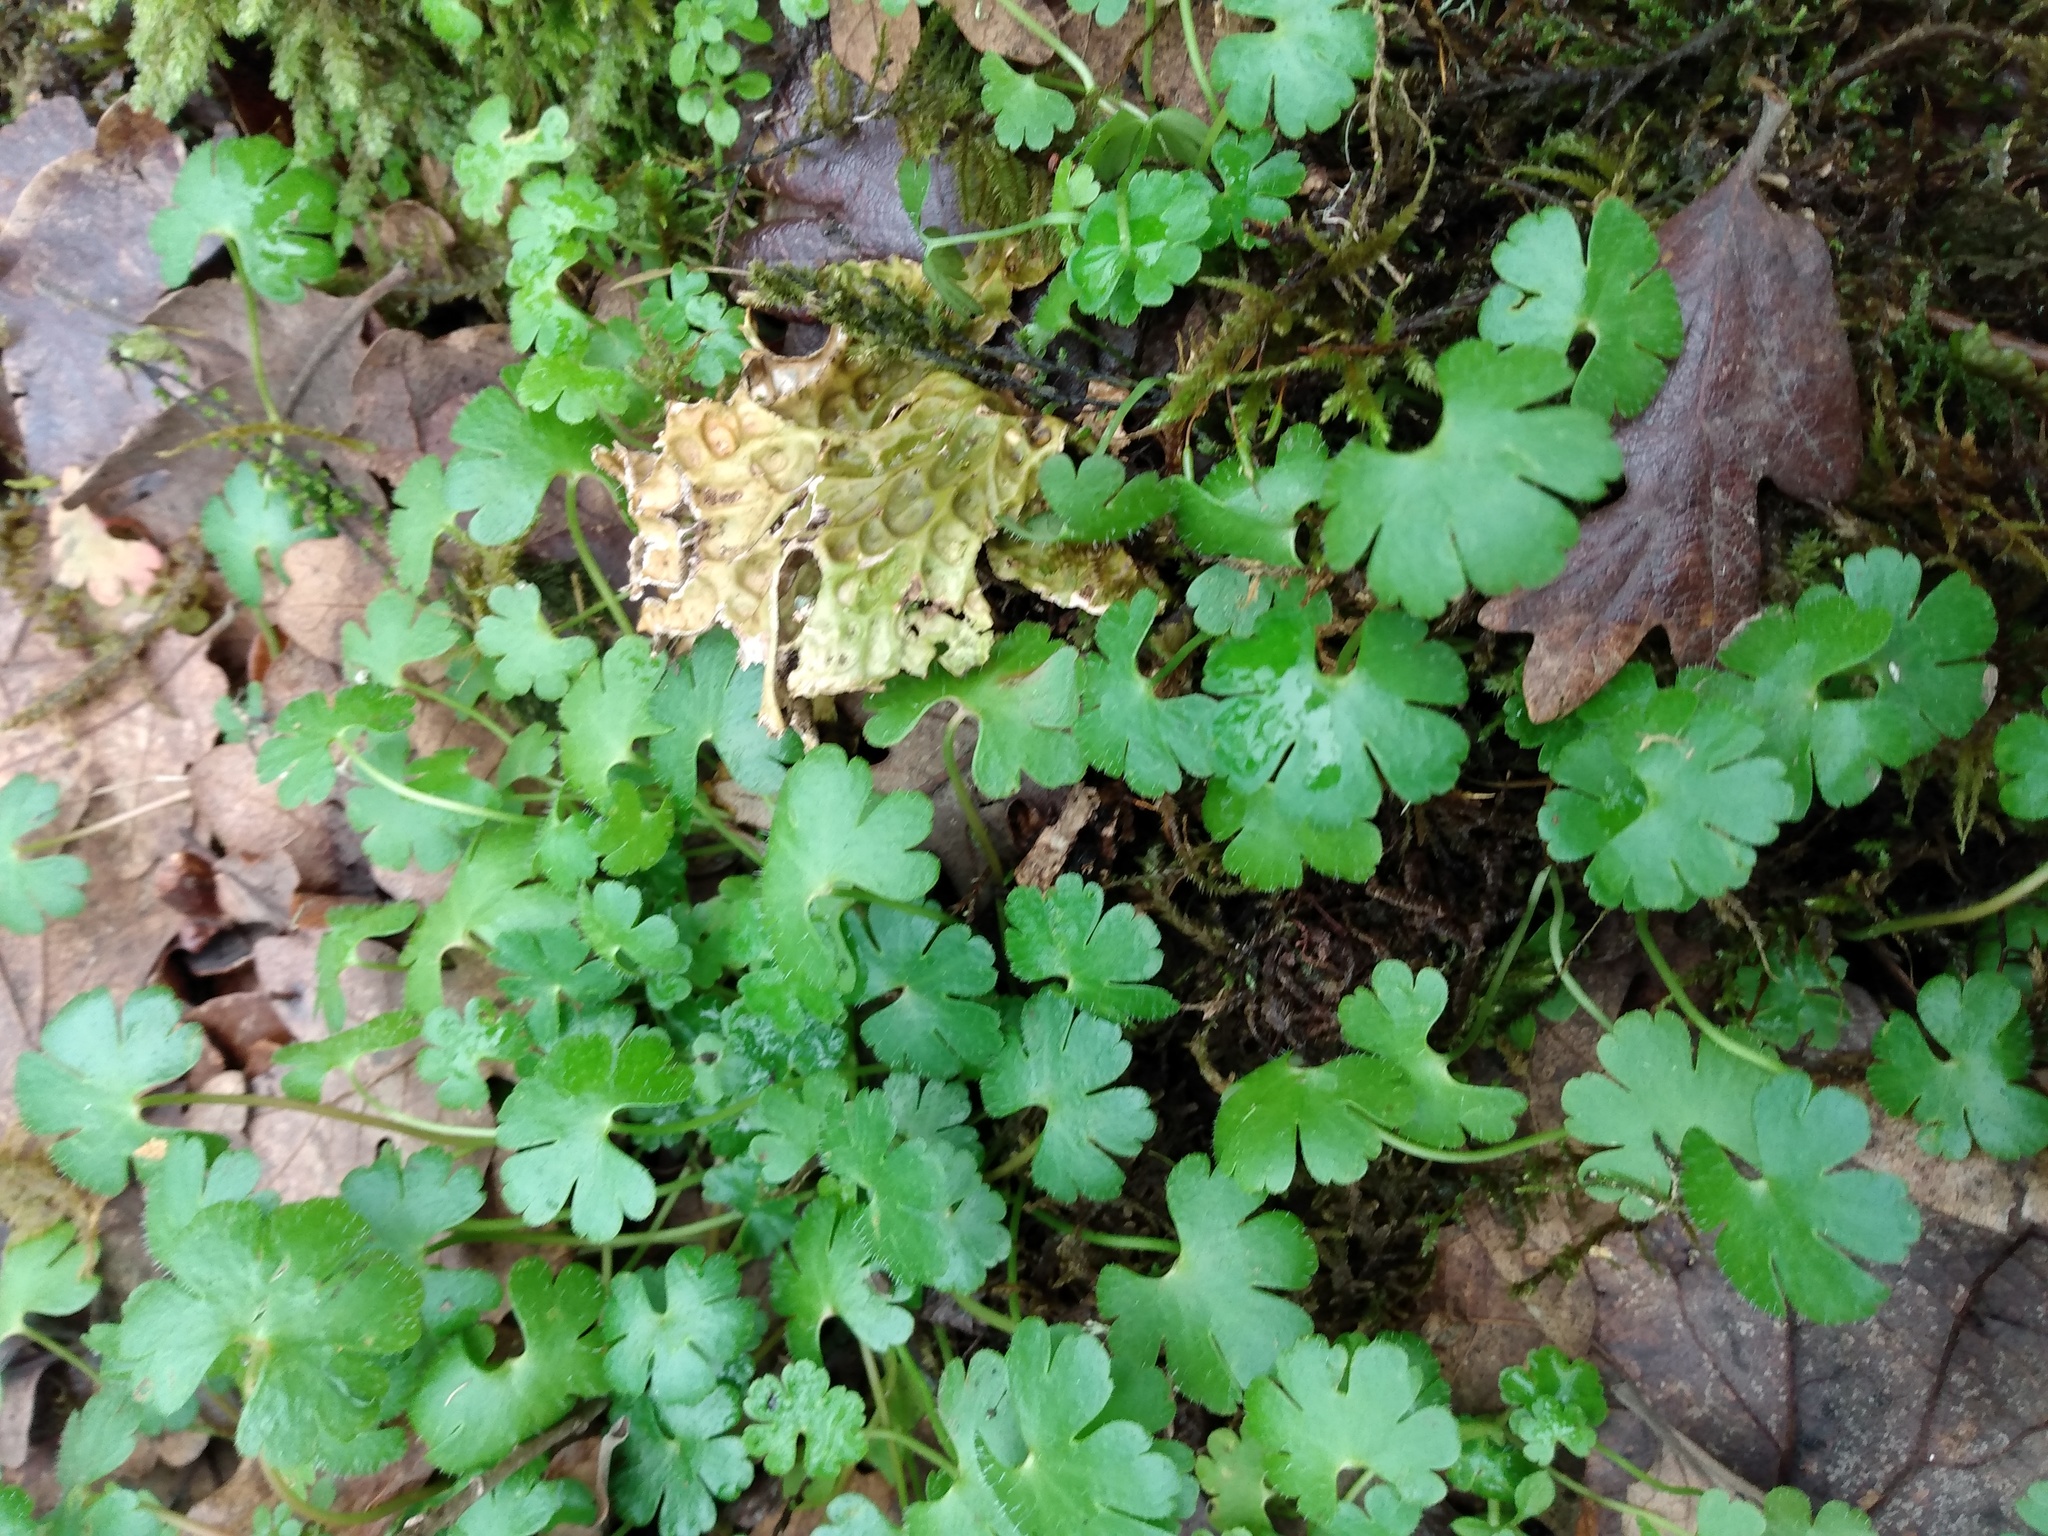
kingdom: Plantae
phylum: Tracheophyta
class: Magnoliopsida
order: Geraniales
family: Geraniaceae
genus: Geranium
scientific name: Geranium lucidum
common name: Shining crane's-bill
